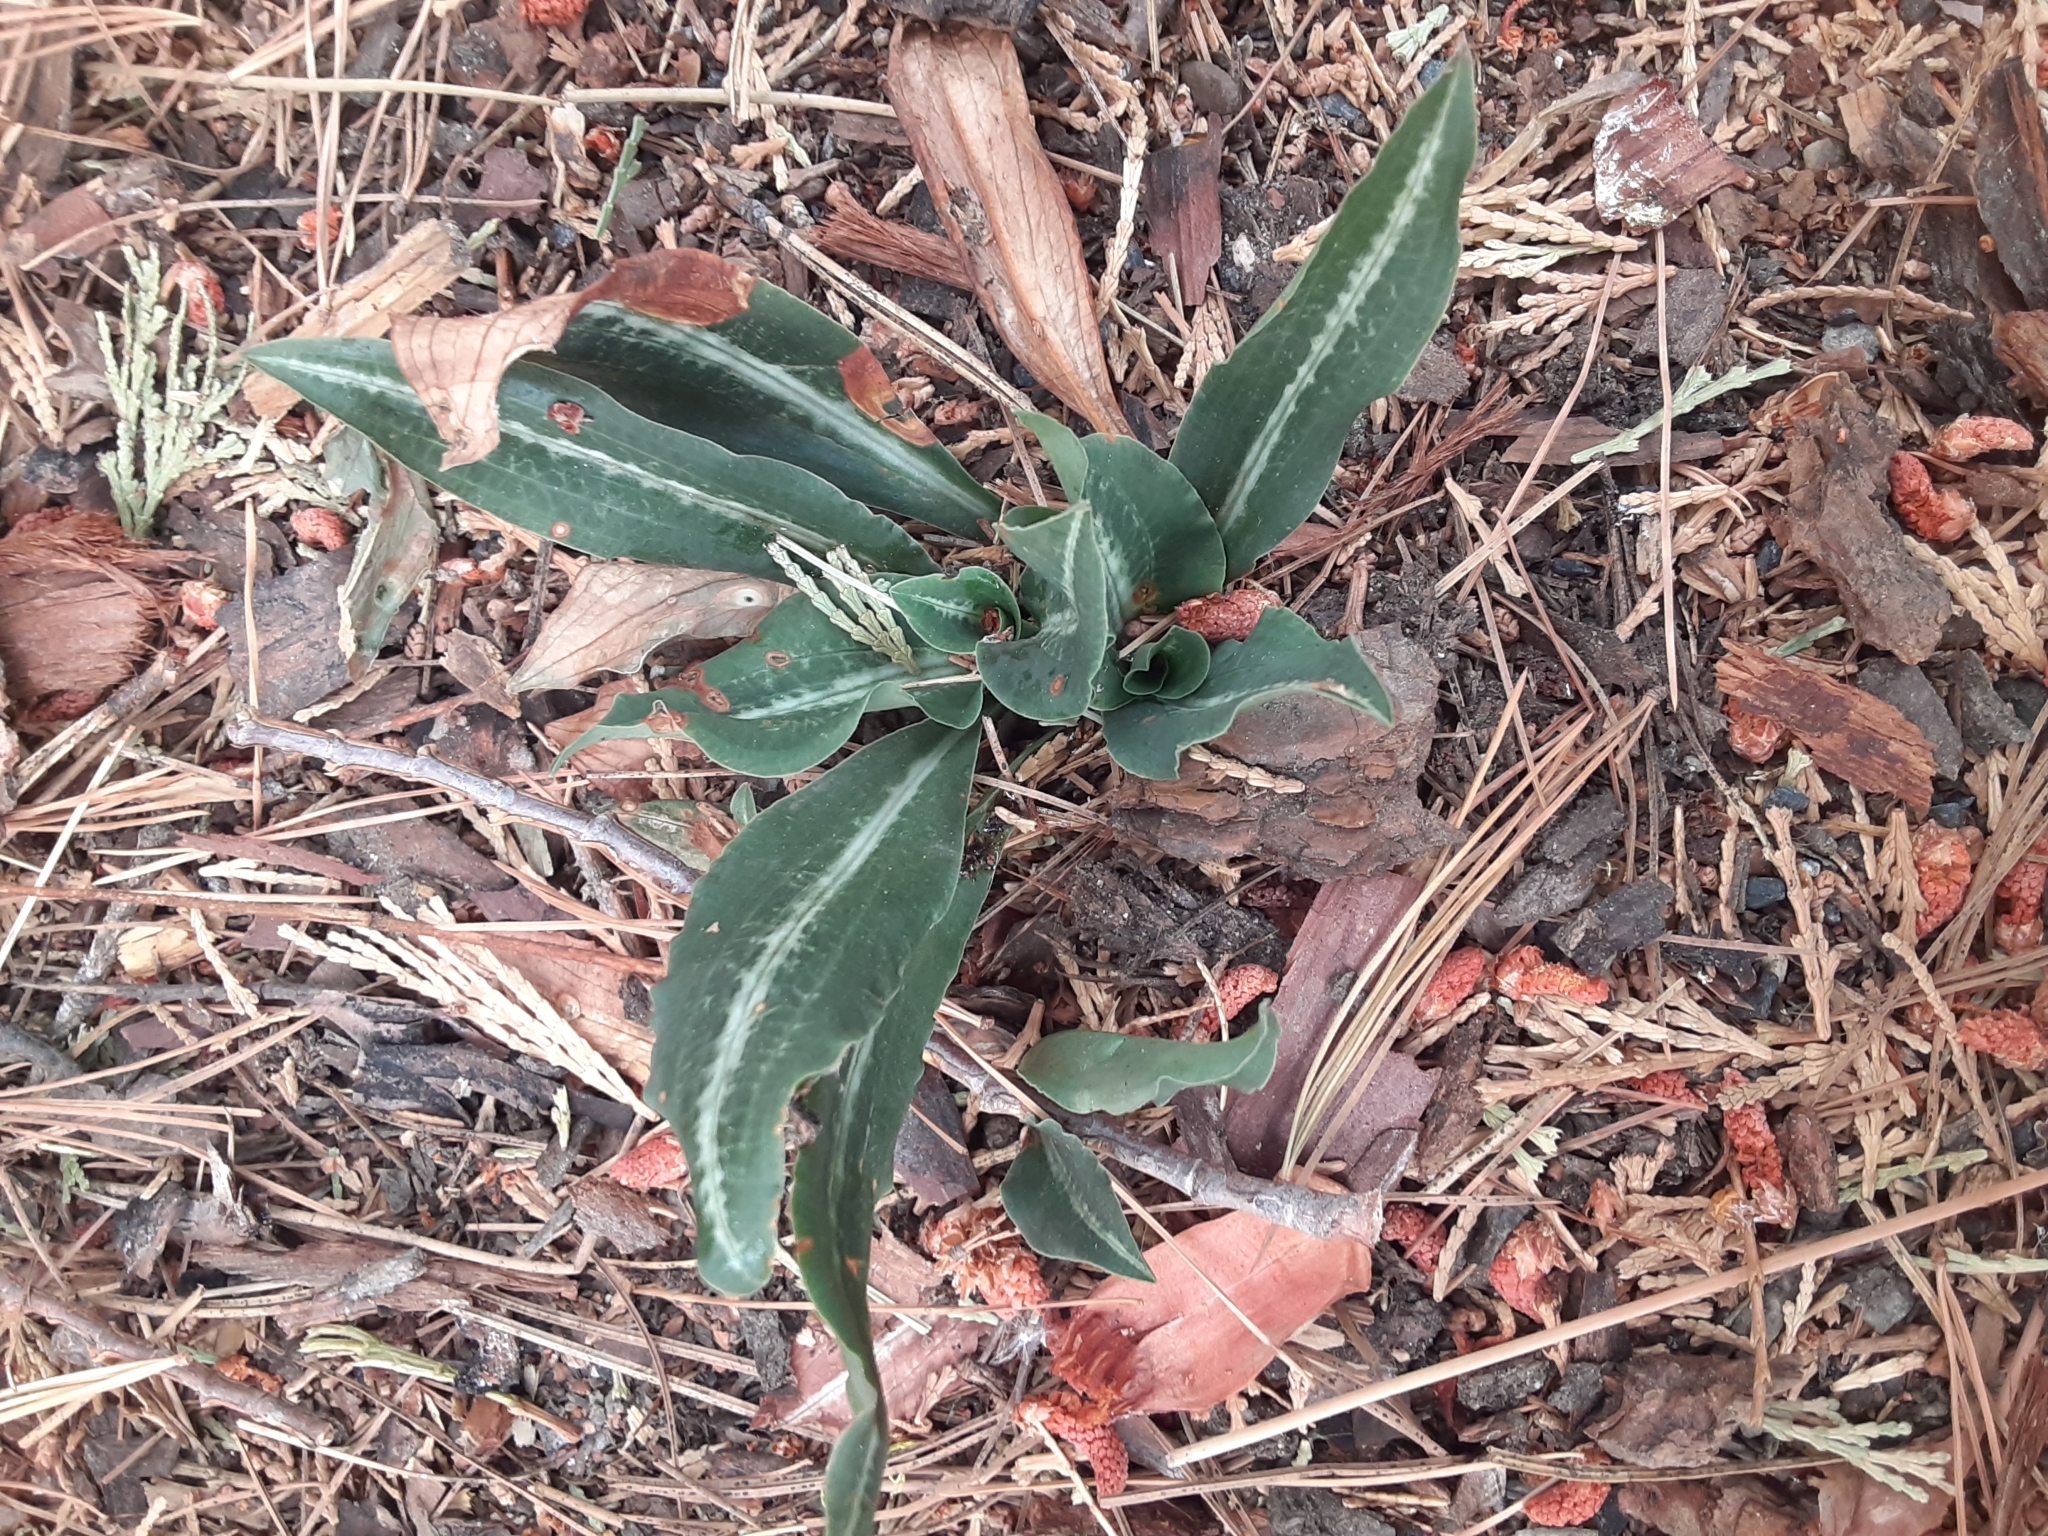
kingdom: Plantae
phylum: Tracheophyta
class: Liliopsida
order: Asparagales
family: Orchidaceae
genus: Goodyera
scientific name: Goodyera oblongifolia
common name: Giant rattlesnake-plantain
